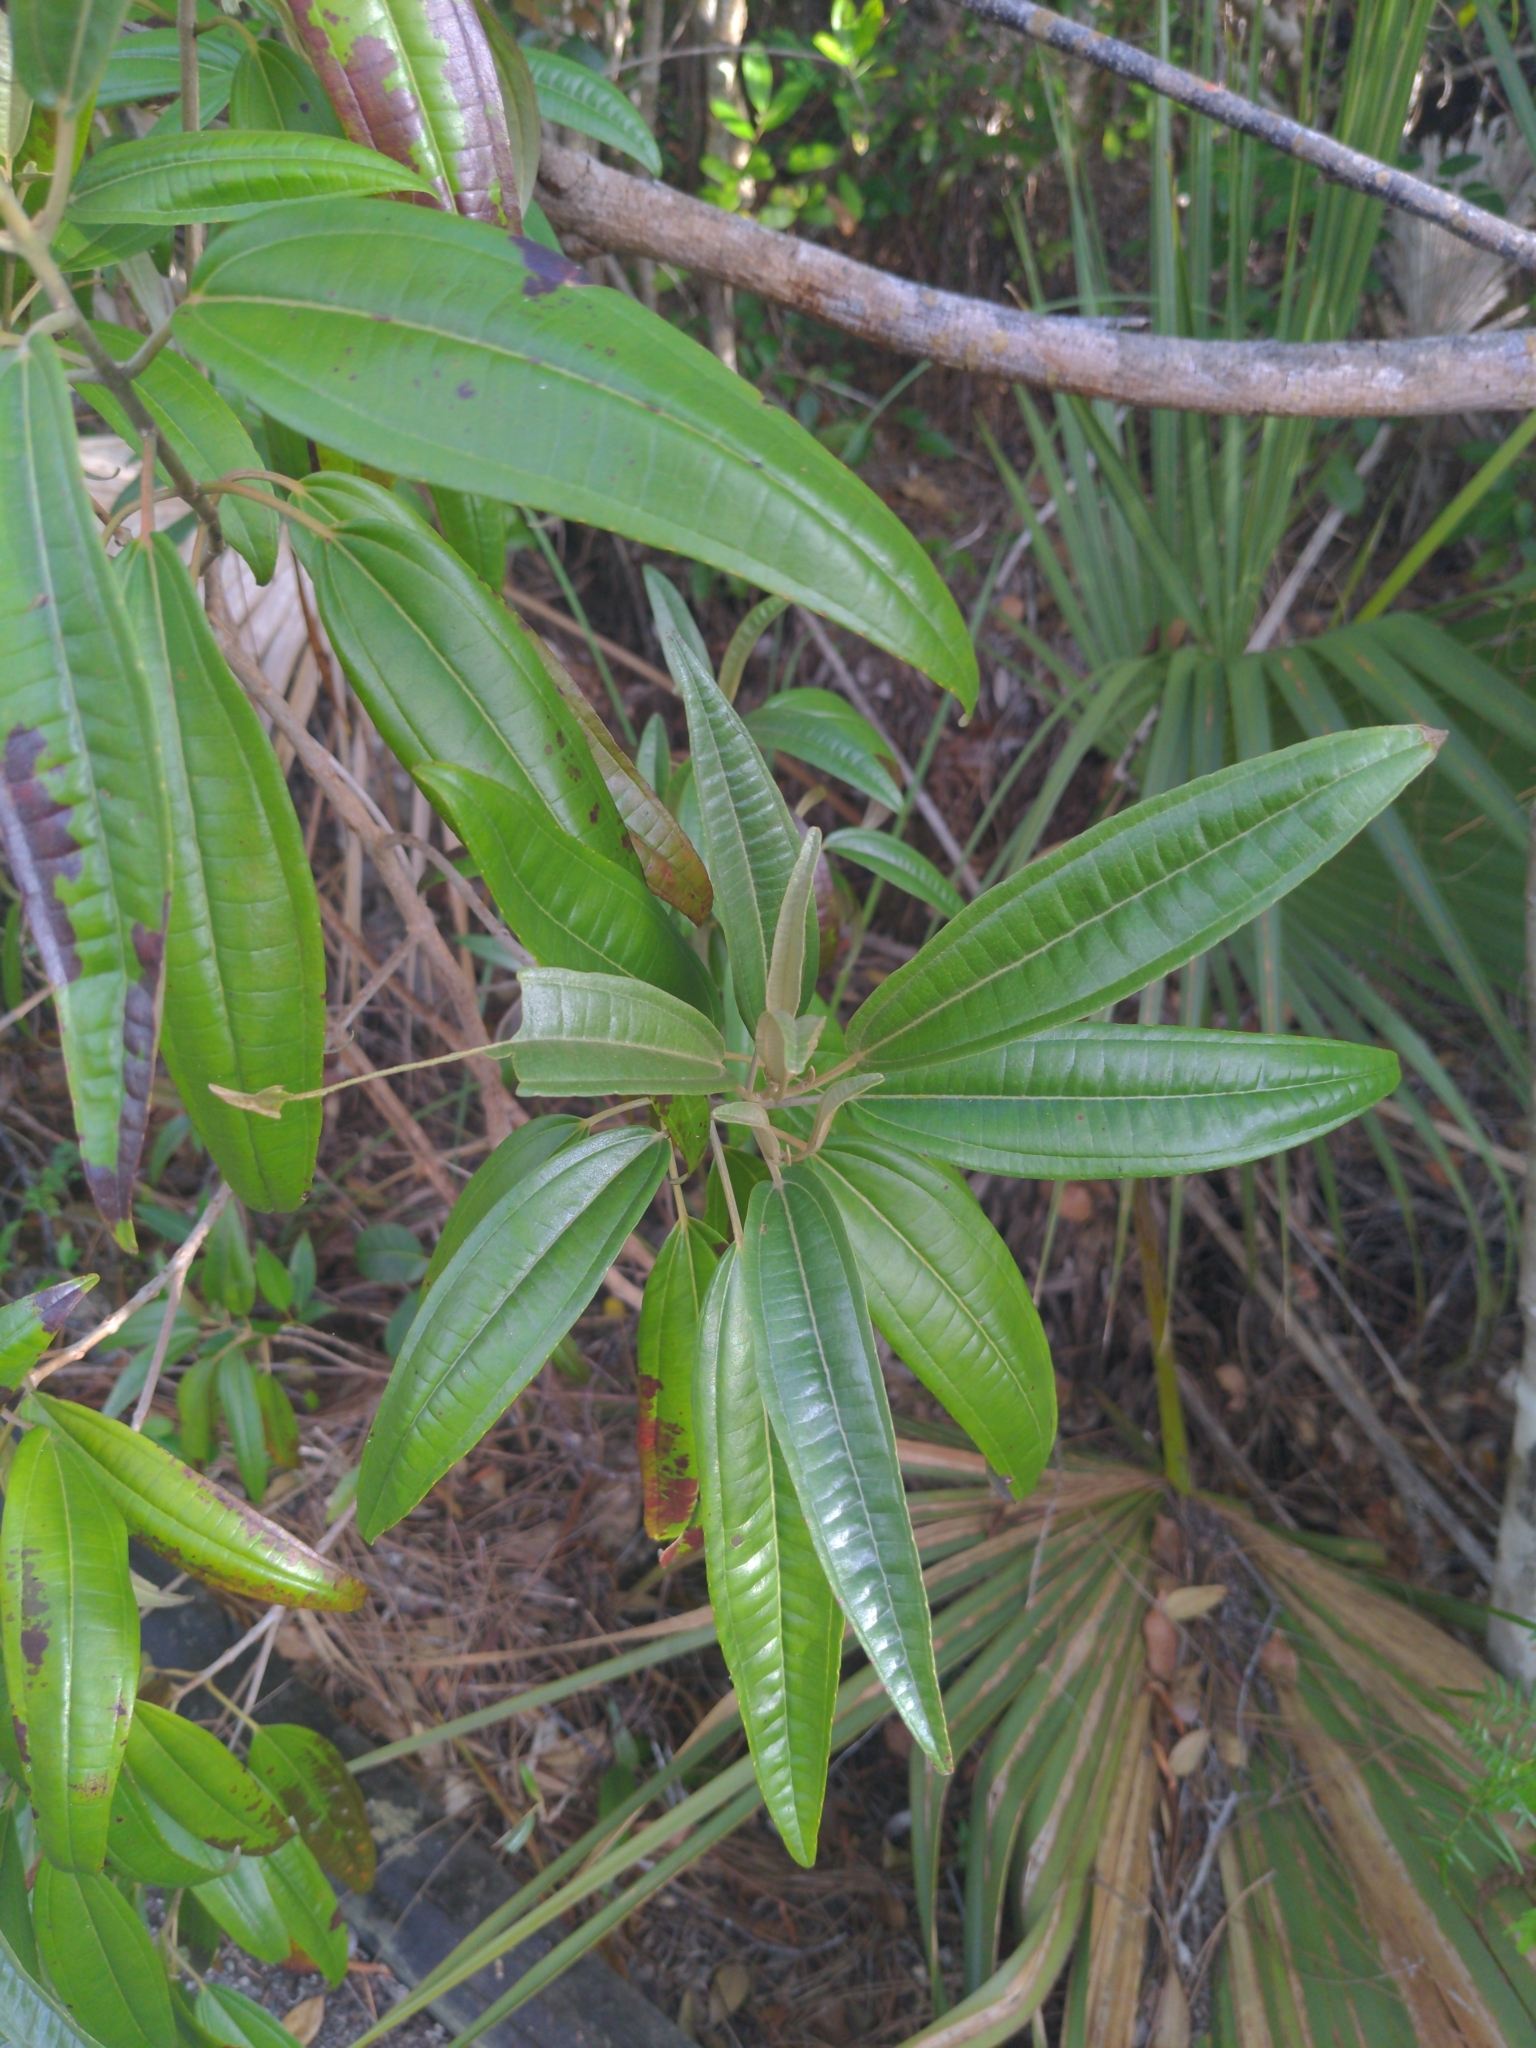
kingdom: Plantae
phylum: Tracheophyta
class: Magnoliopsida
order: Myrtales
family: Melastomataceae
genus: Miconia
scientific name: Miconia bicolor
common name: Johnnyberry
